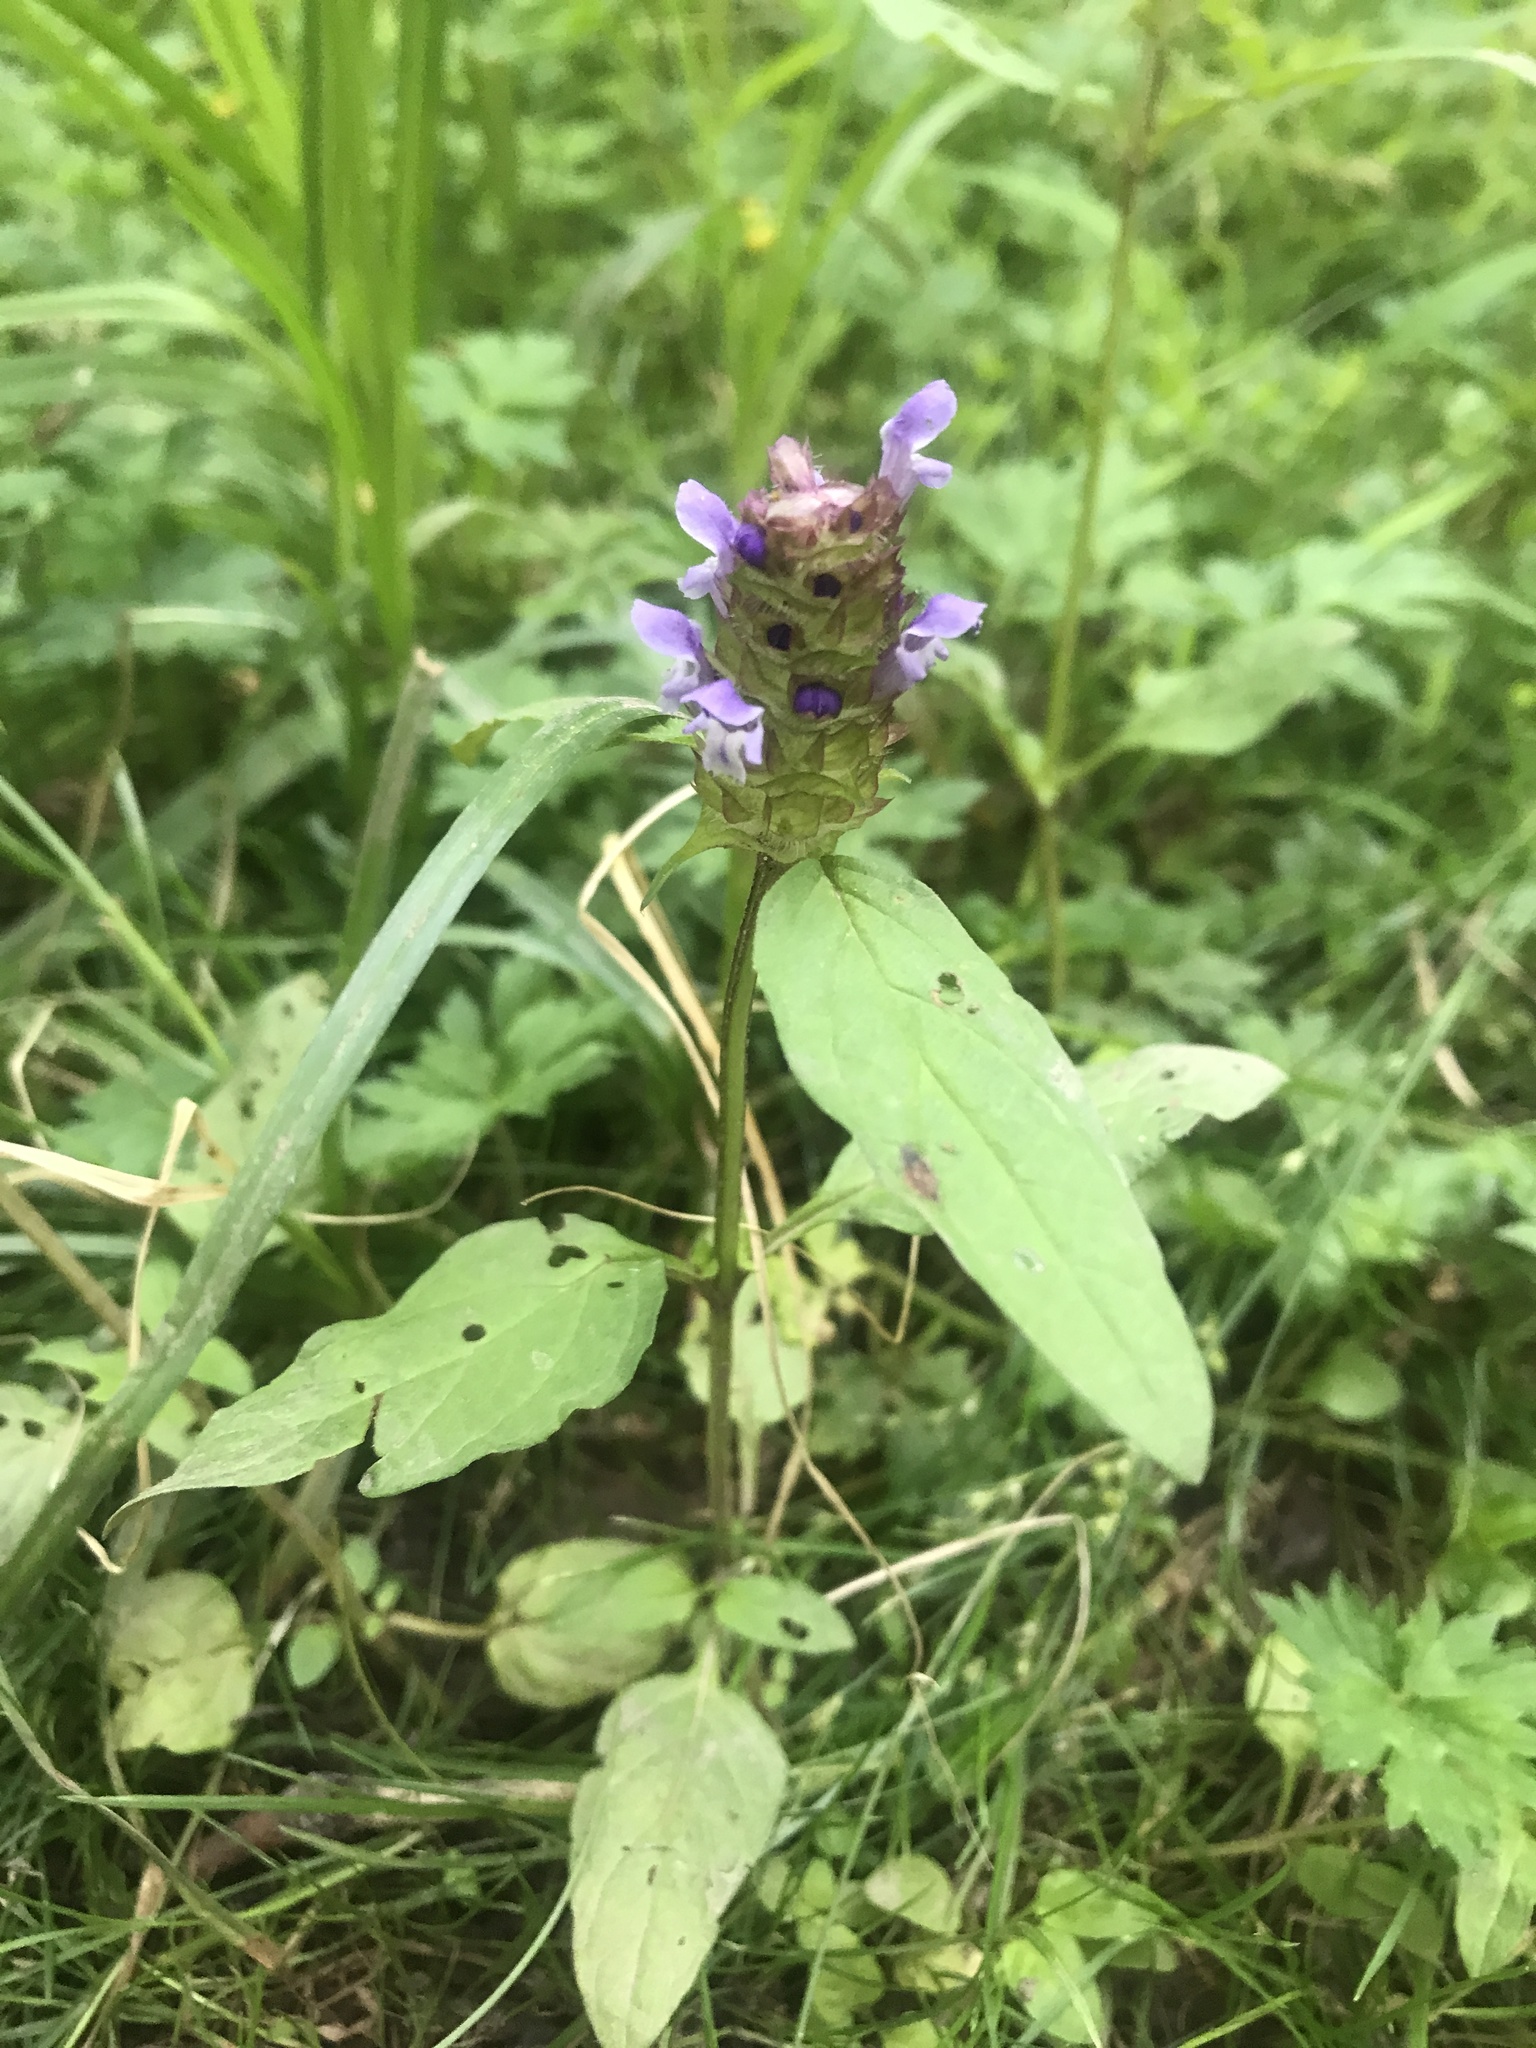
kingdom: Plantae
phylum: Tracheophyta
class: Magnoliopsida
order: Lamiales
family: Lamiaceae
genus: Prunella
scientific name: Prunella vulgaris
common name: Heal-all
